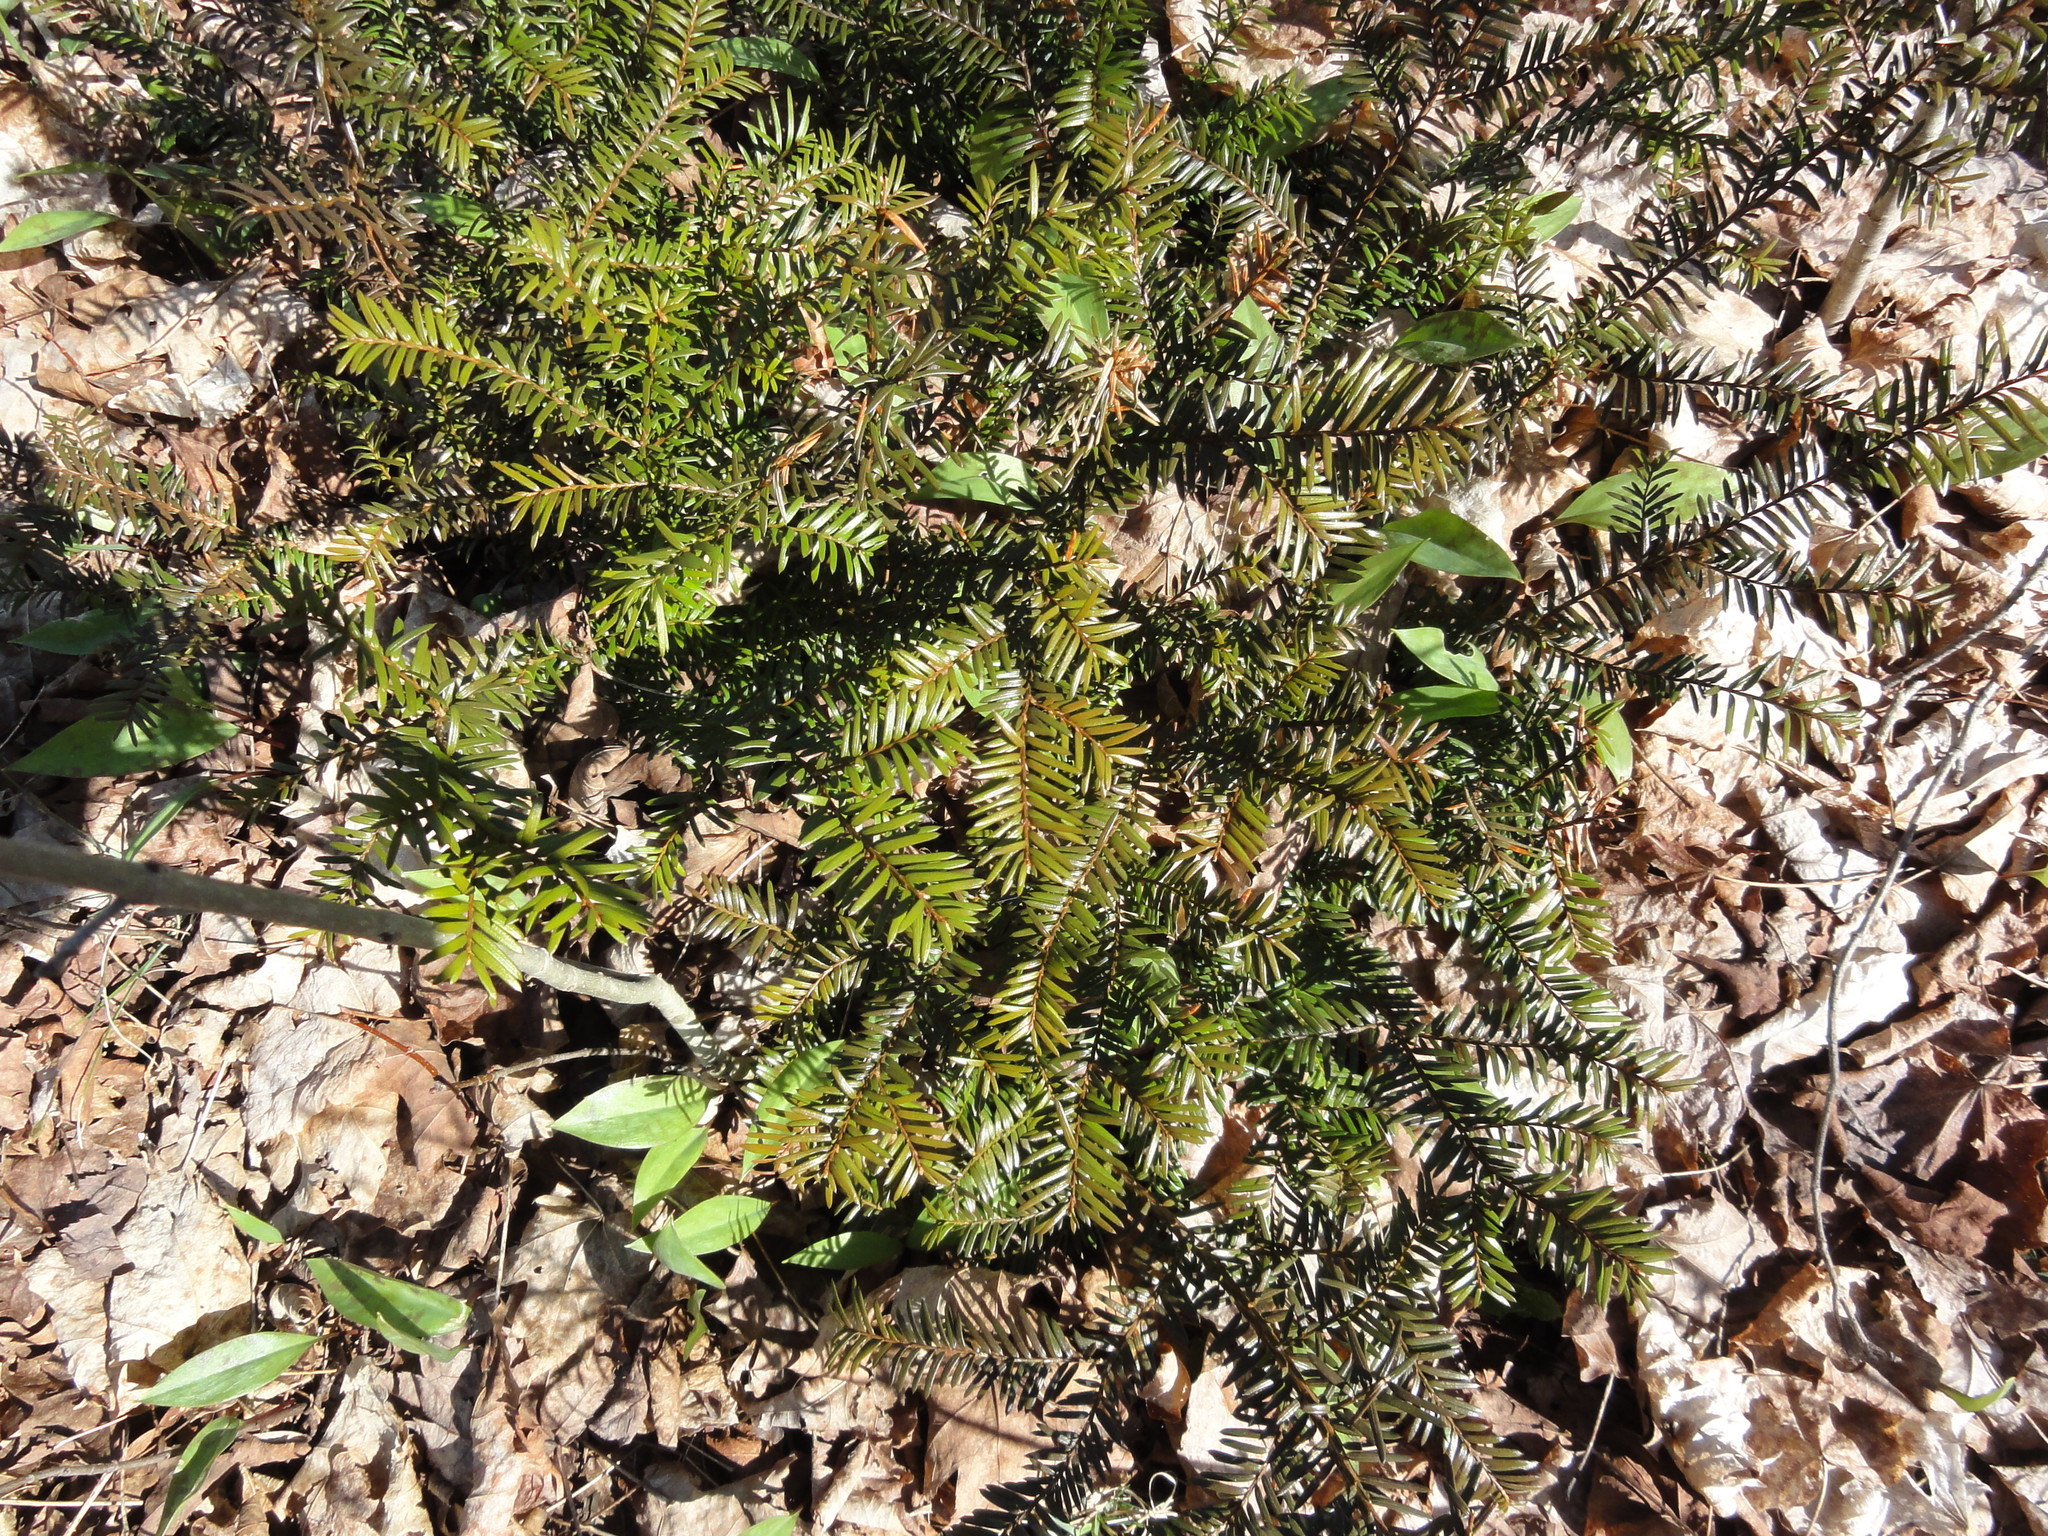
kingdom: Plantae
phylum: Tracheophyta
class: Pinopsida
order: Pinales
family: Taxaceae
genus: Taxus
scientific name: Taxus canadensis
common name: American yew
